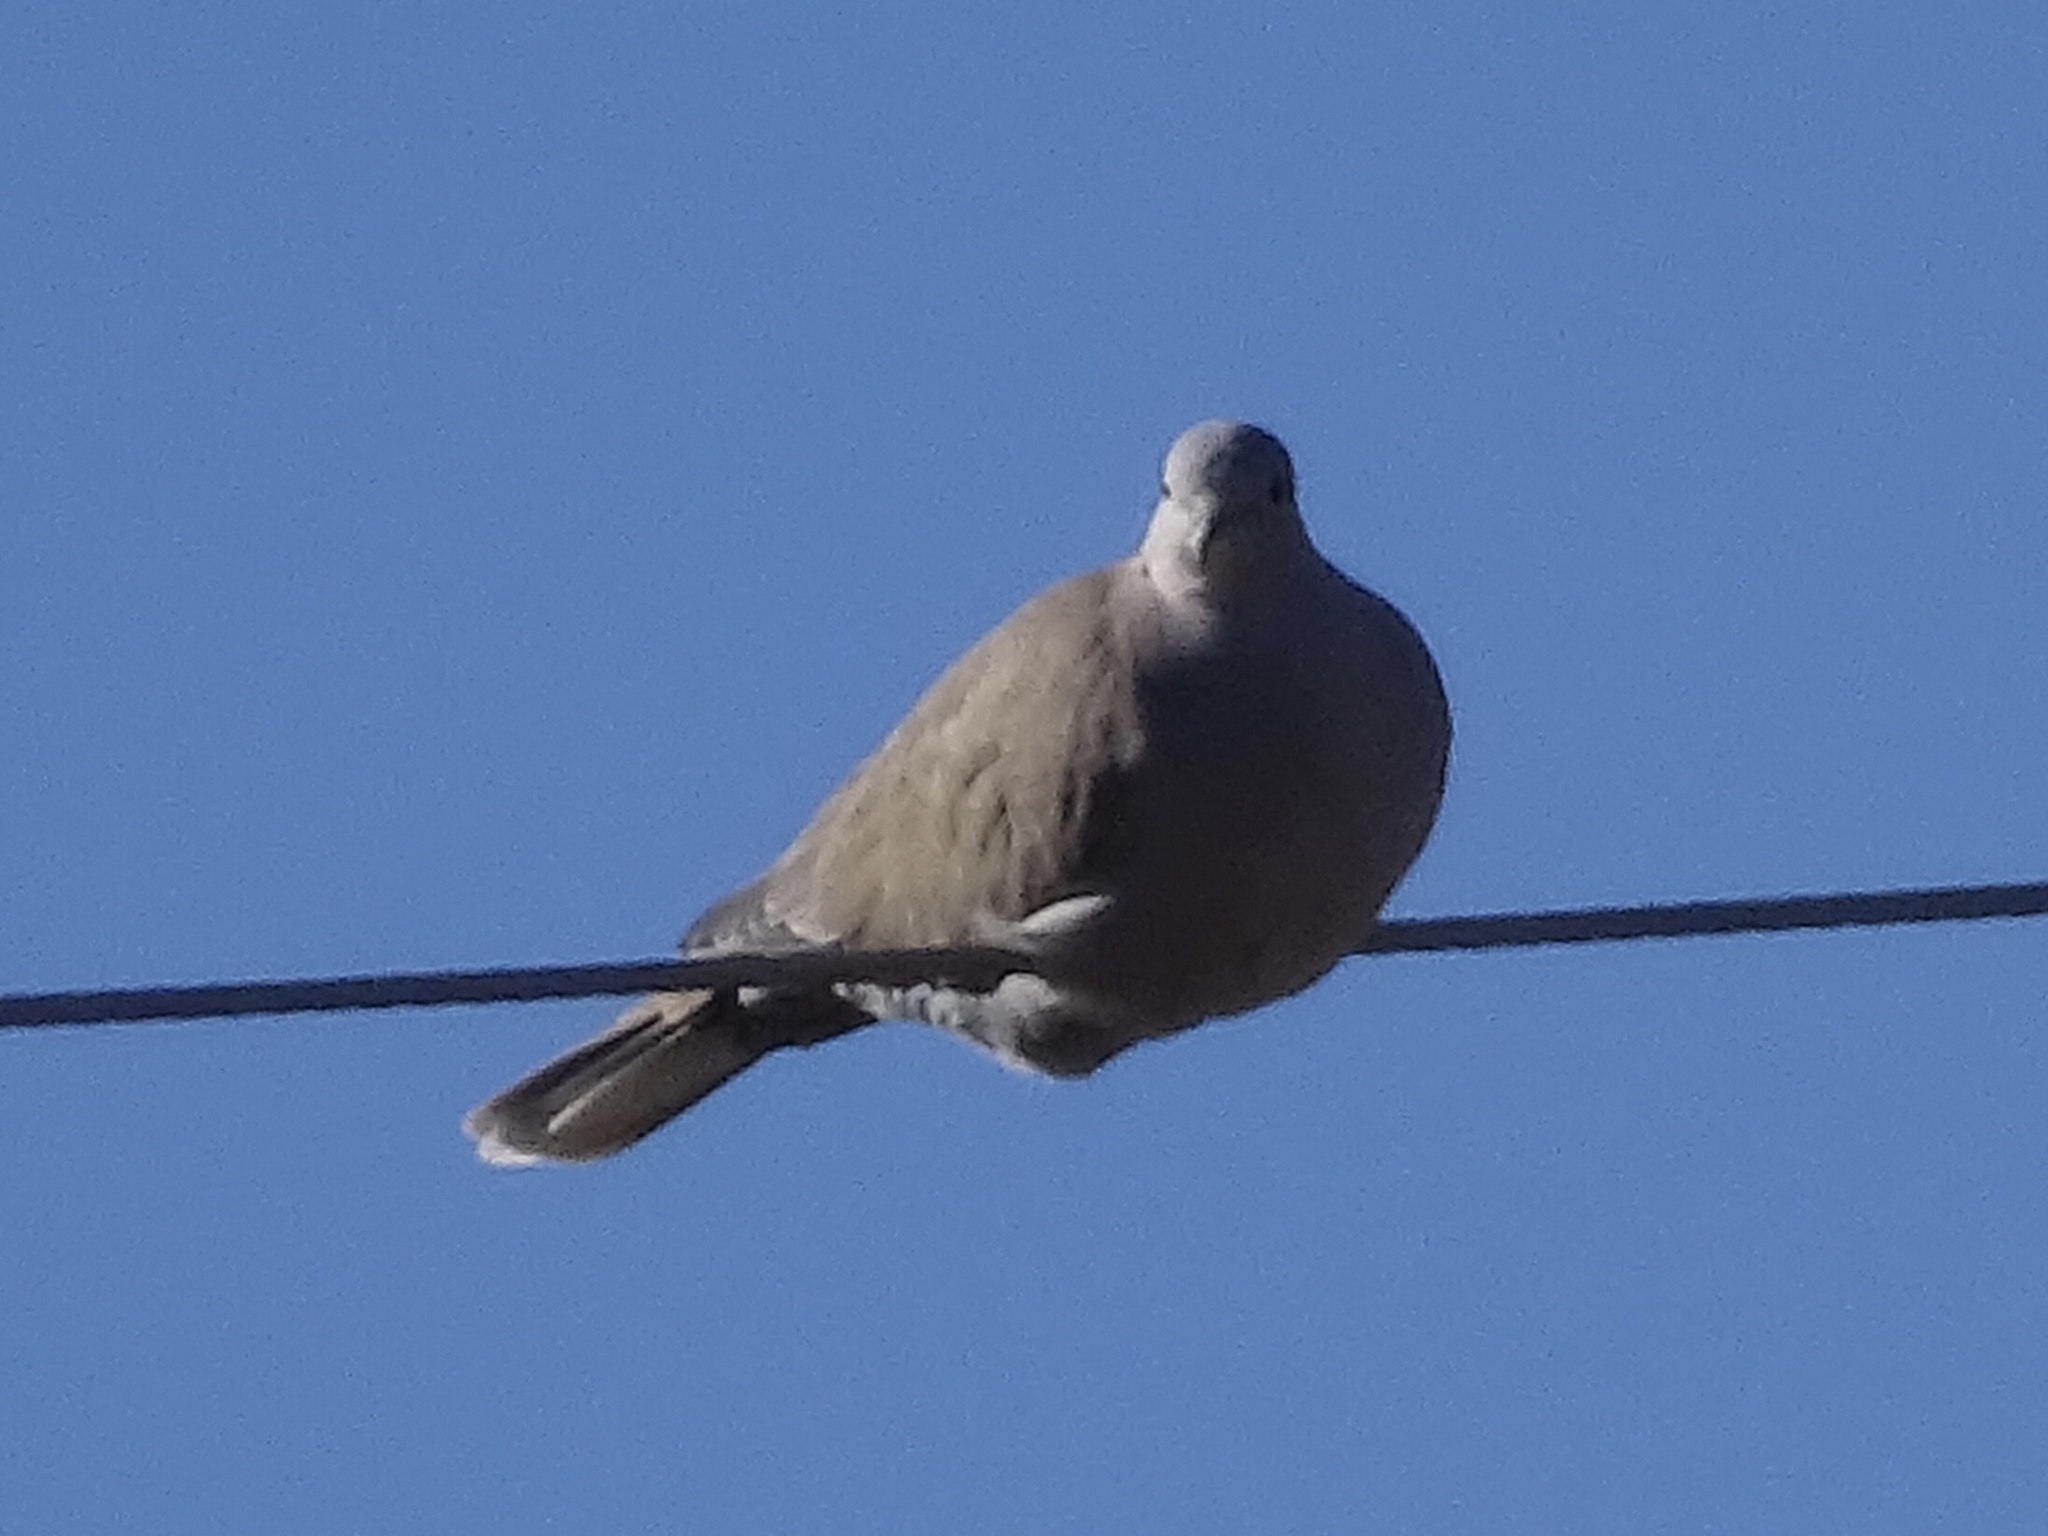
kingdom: Animalia
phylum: Chordata
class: Aves
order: Columbiformes
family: Columbidae
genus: Streptopelia
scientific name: Streptopelia decaocto
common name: Eurasian collared dove
